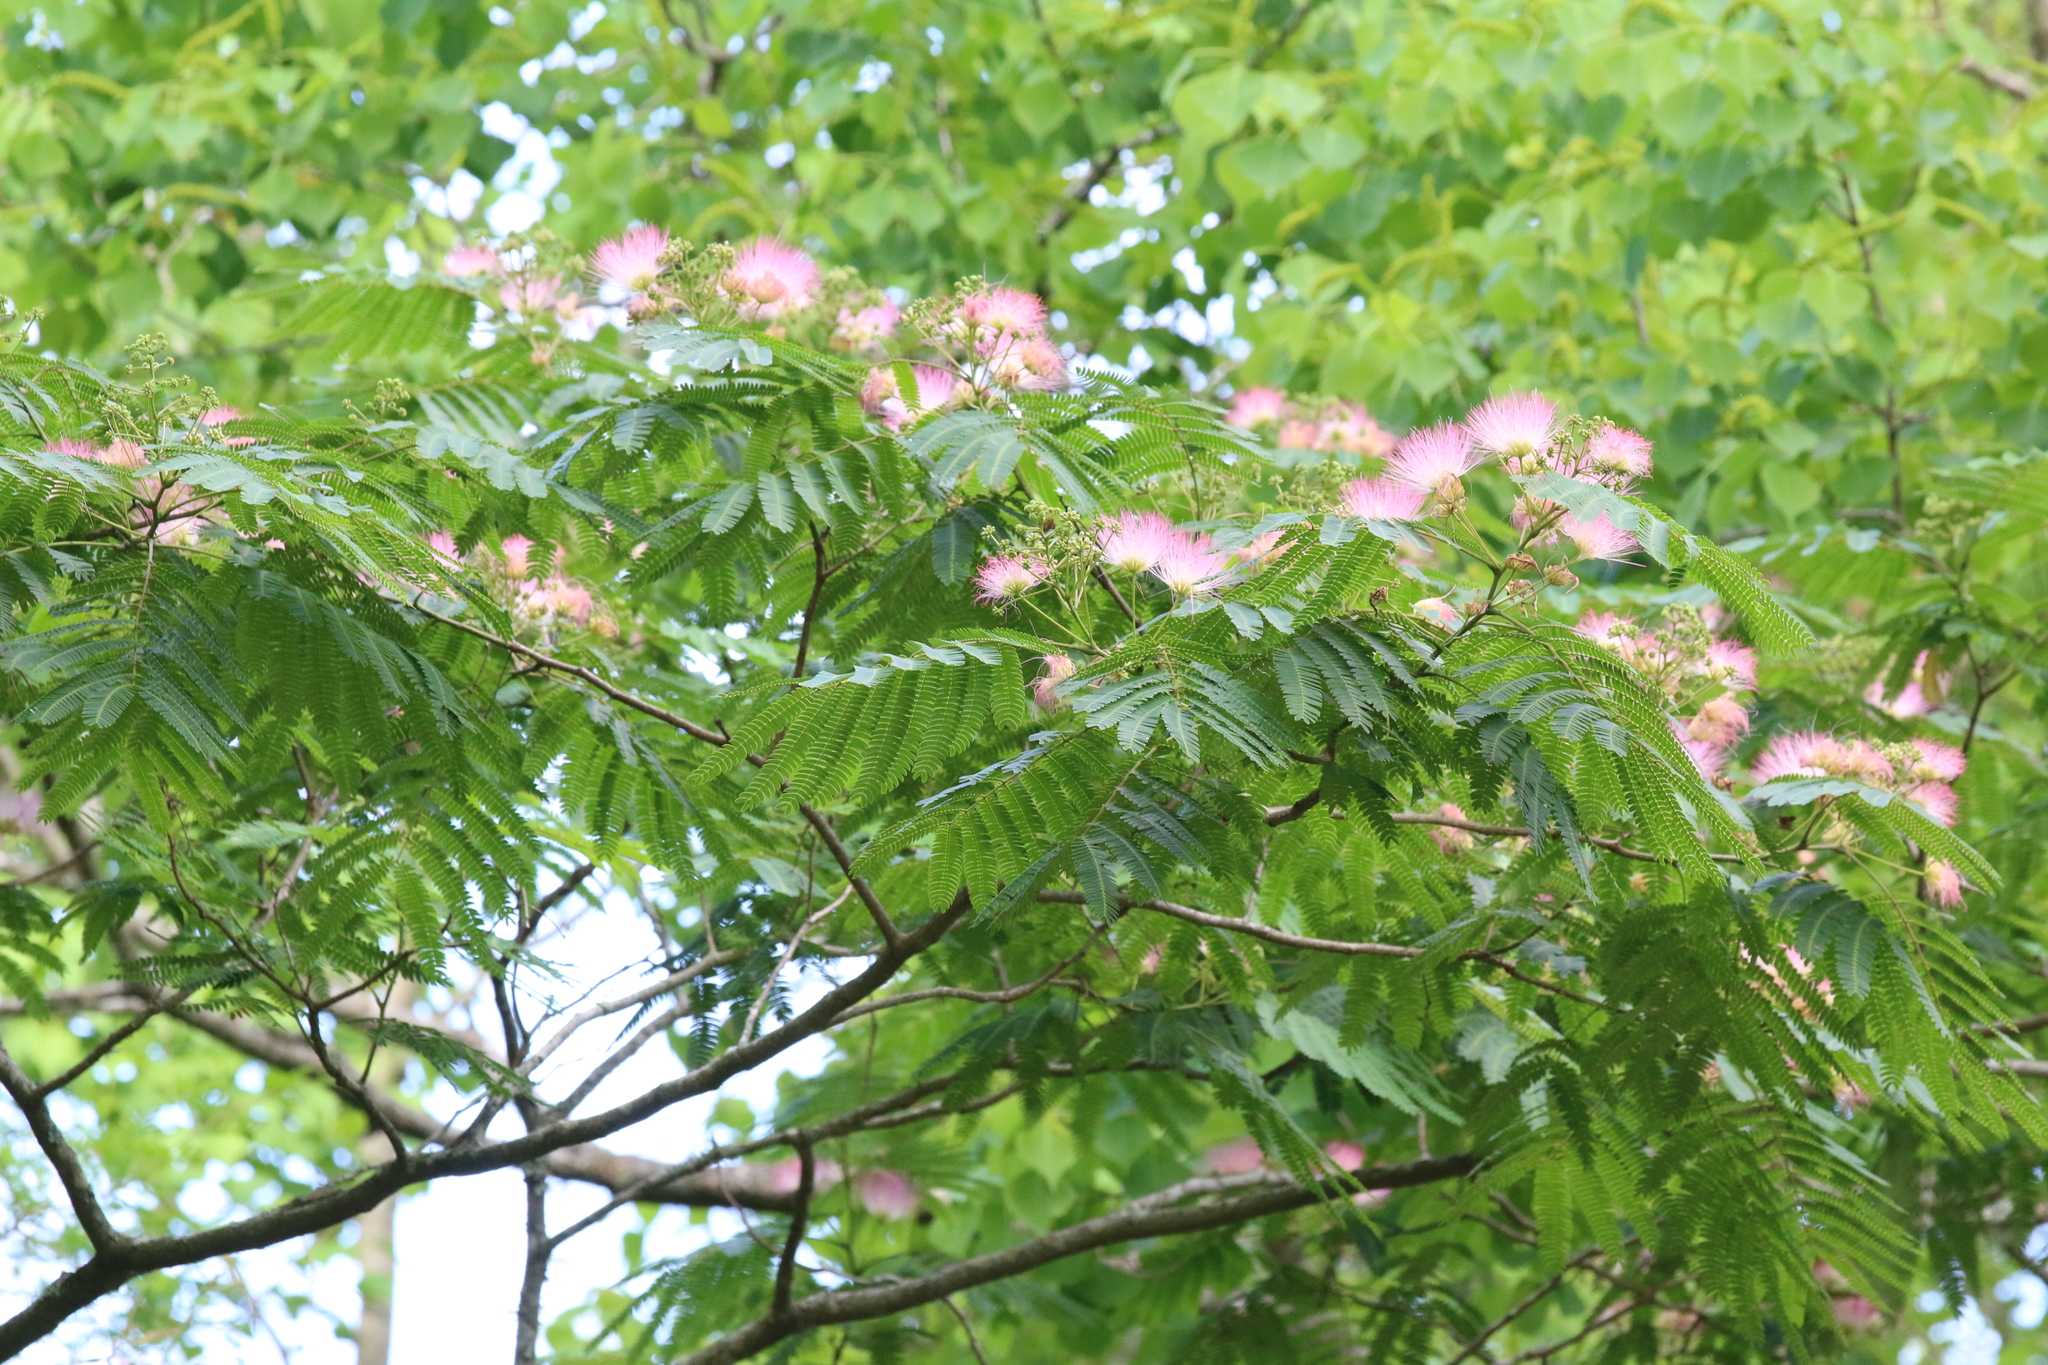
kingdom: Plantae
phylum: Tracheophyta
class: Magnoliopsida
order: Fabales
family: Fabaceae
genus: Albizia
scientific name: Albizia julibrissin
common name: Silktree
